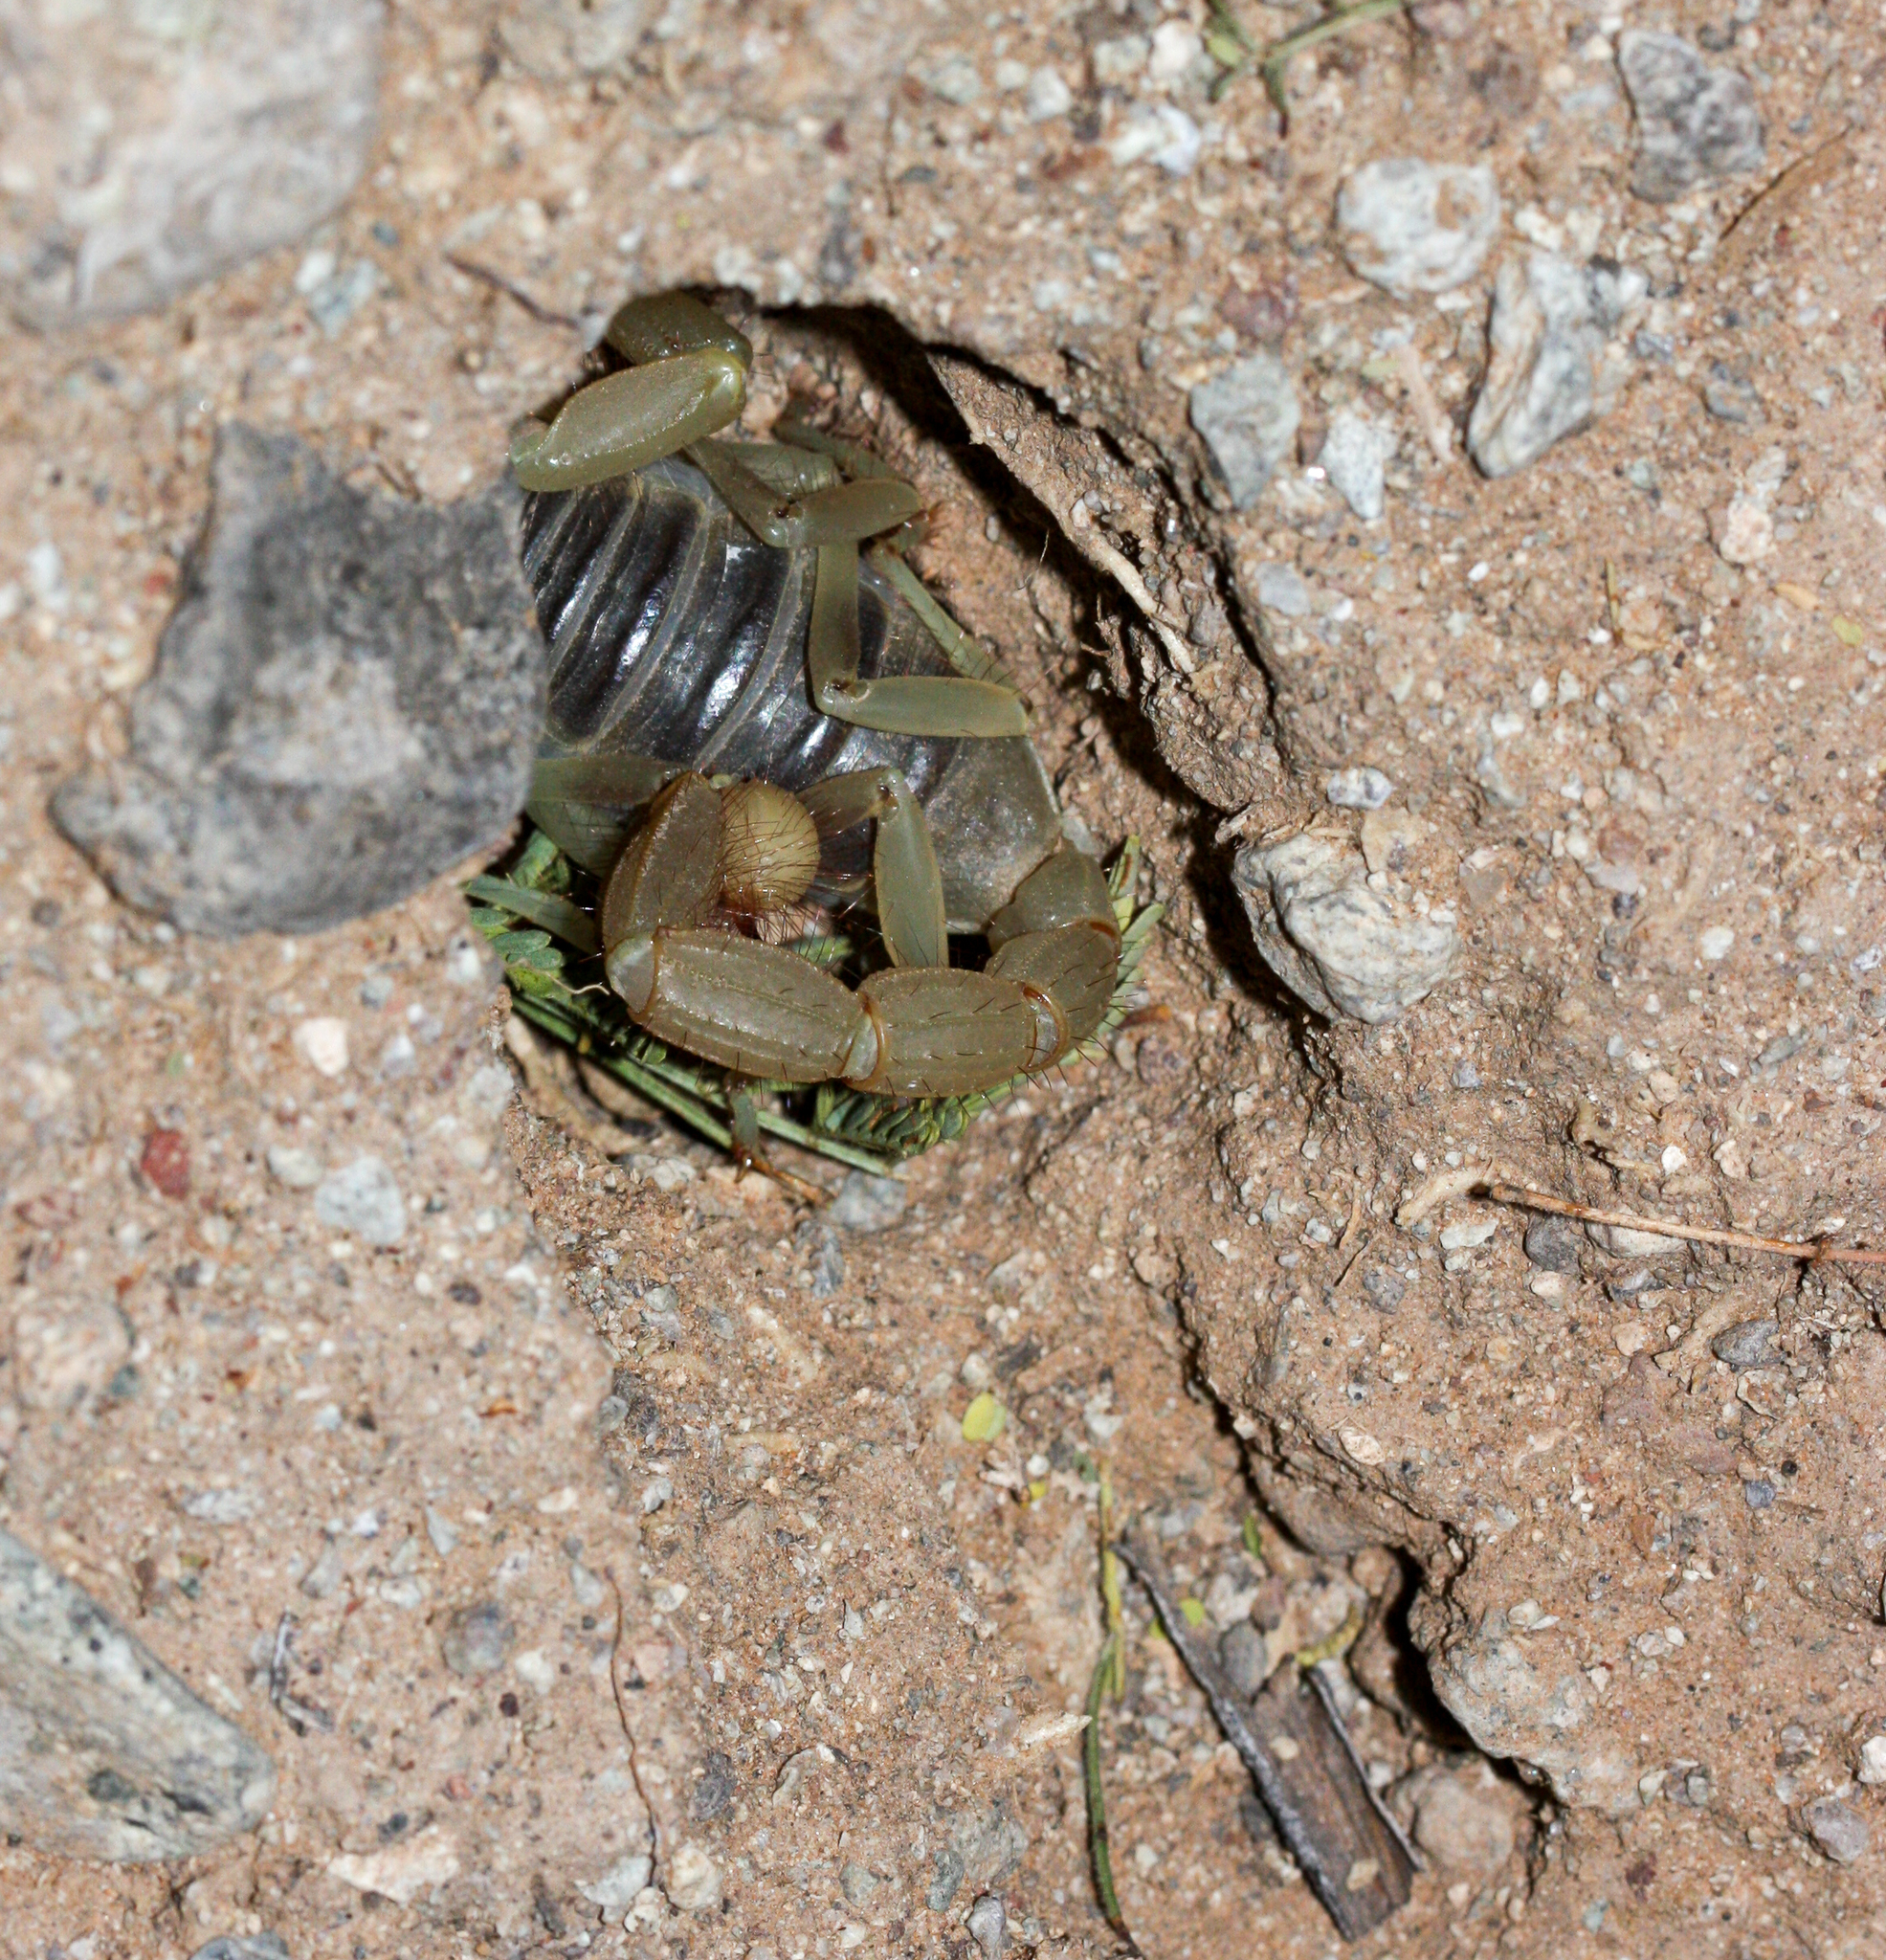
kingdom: Animalia
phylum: Arthropoda
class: Arachnida
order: Scorpiones
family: Hadruridae
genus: Hadrurus
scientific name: Hadrurus arizonensis
